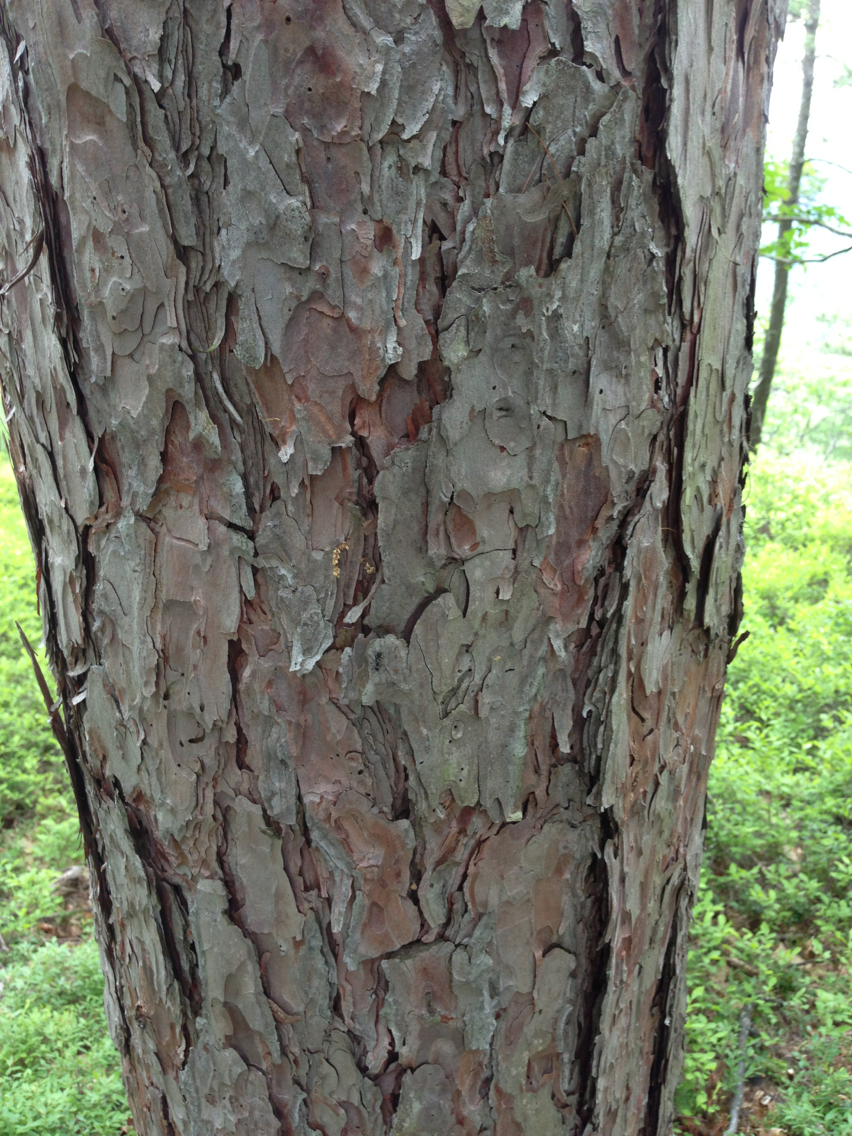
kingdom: Plantae
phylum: Tracheophyta
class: Pinopsida
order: Pinales
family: Pinaceae
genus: Pinus
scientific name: Pinus resinosa
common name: Norway pine
